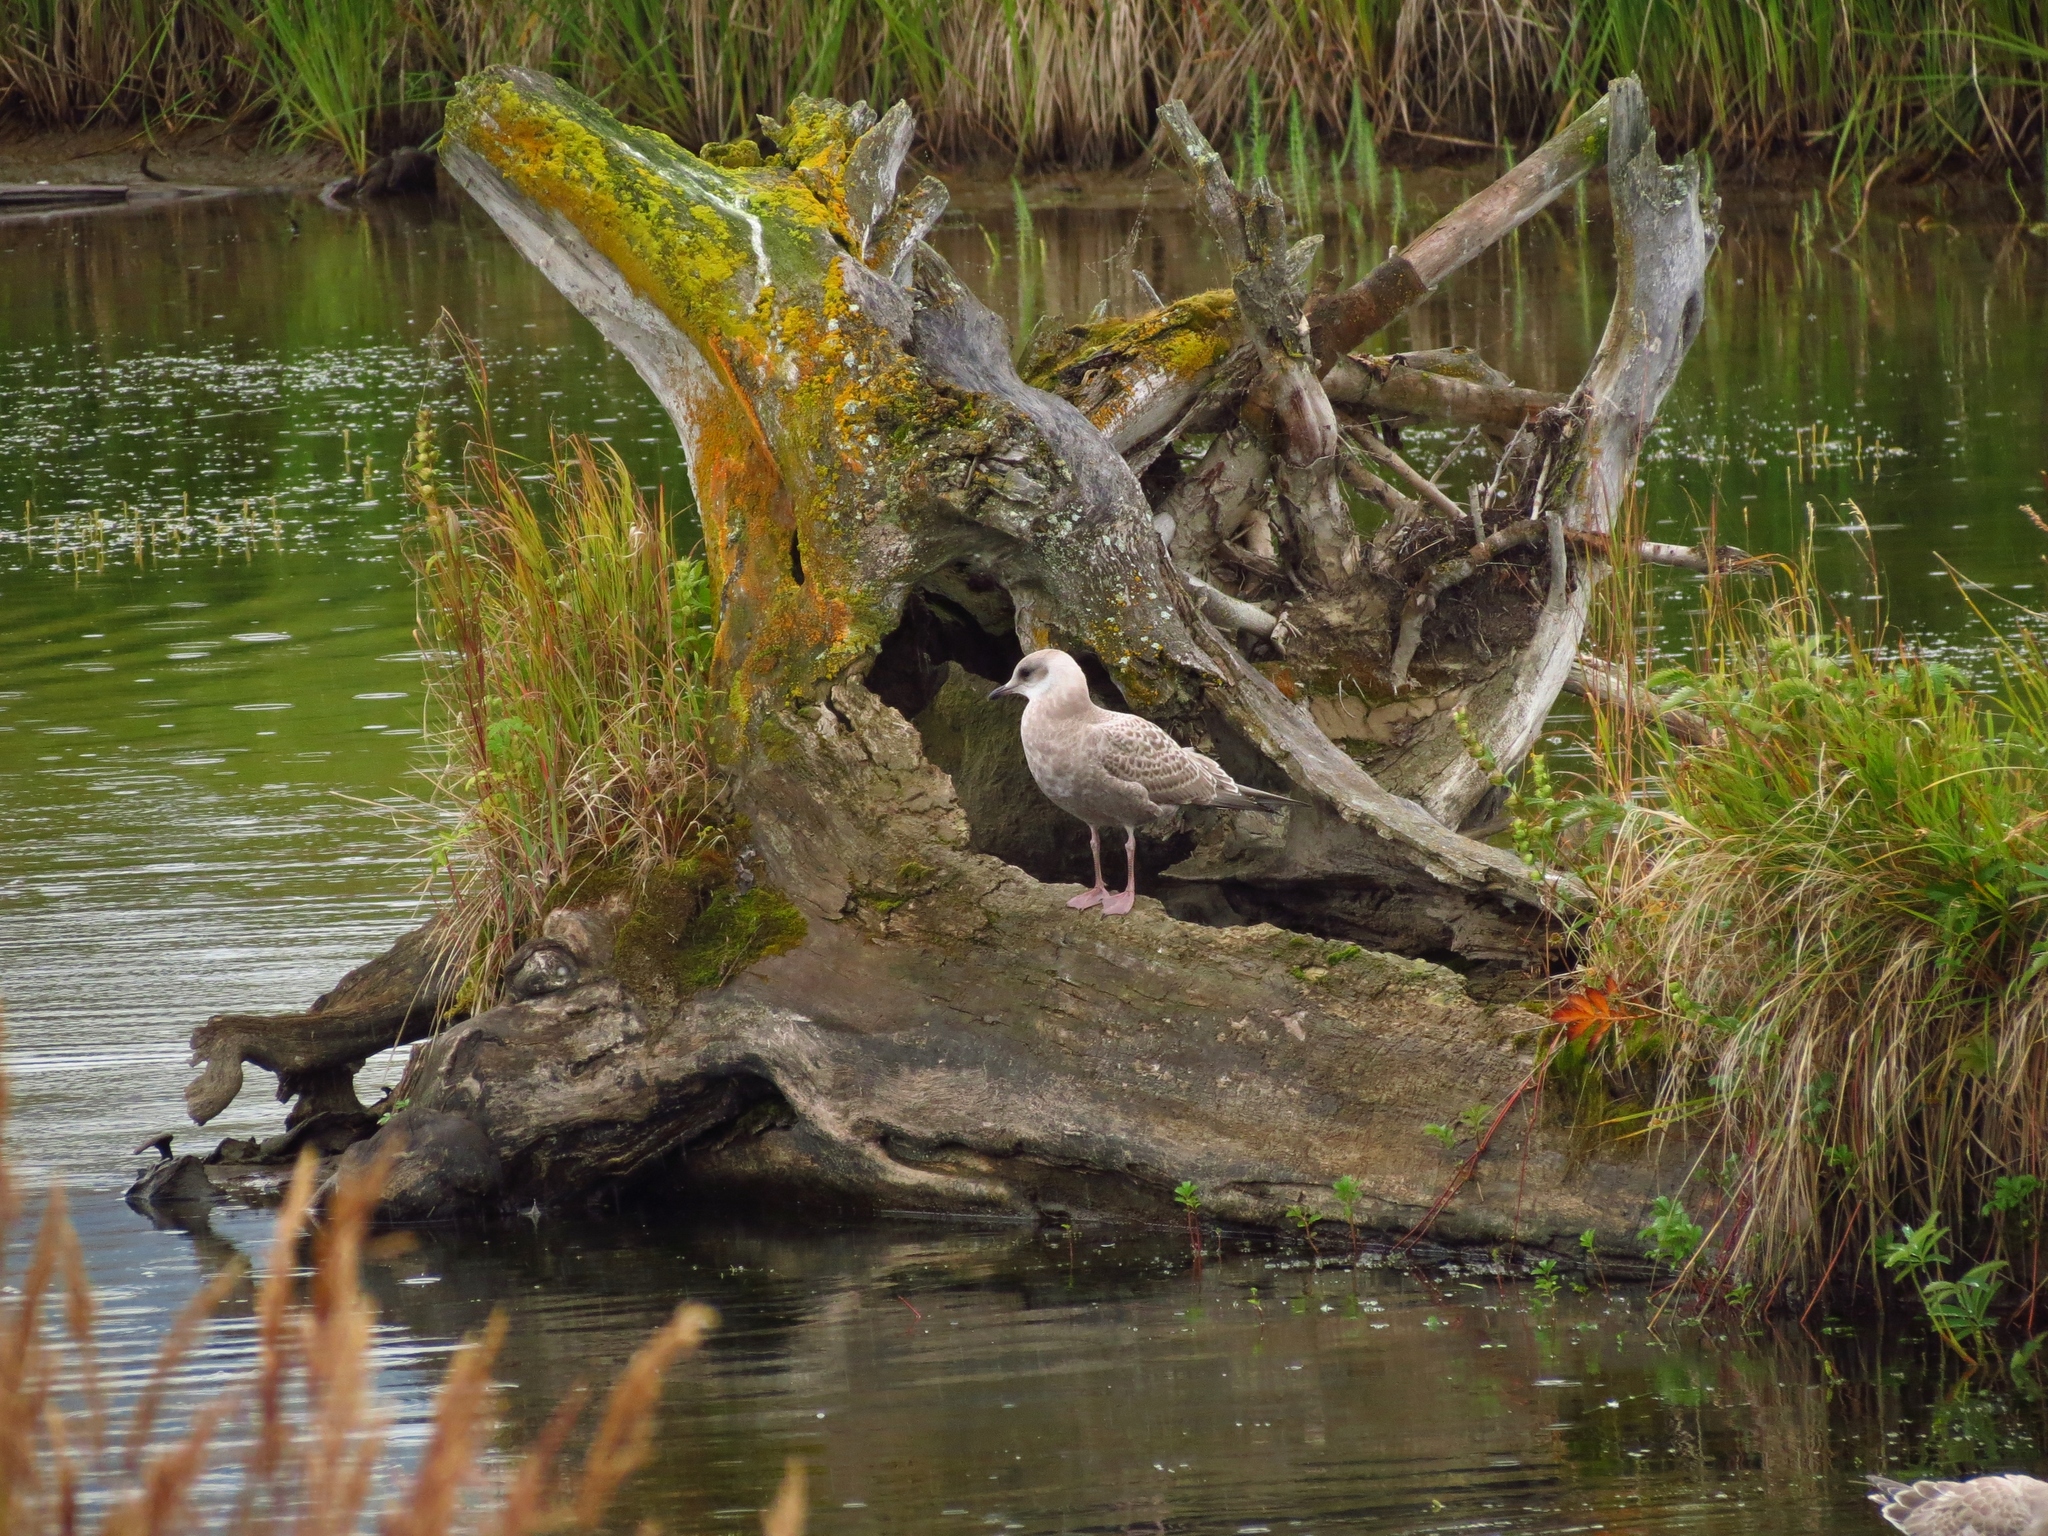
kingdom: Animalia
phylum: Chordata
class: Aves
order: Charadriiformes
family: Laridae
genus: Larus
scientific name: Larus brachyrhynchus
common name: Short-billed gull
